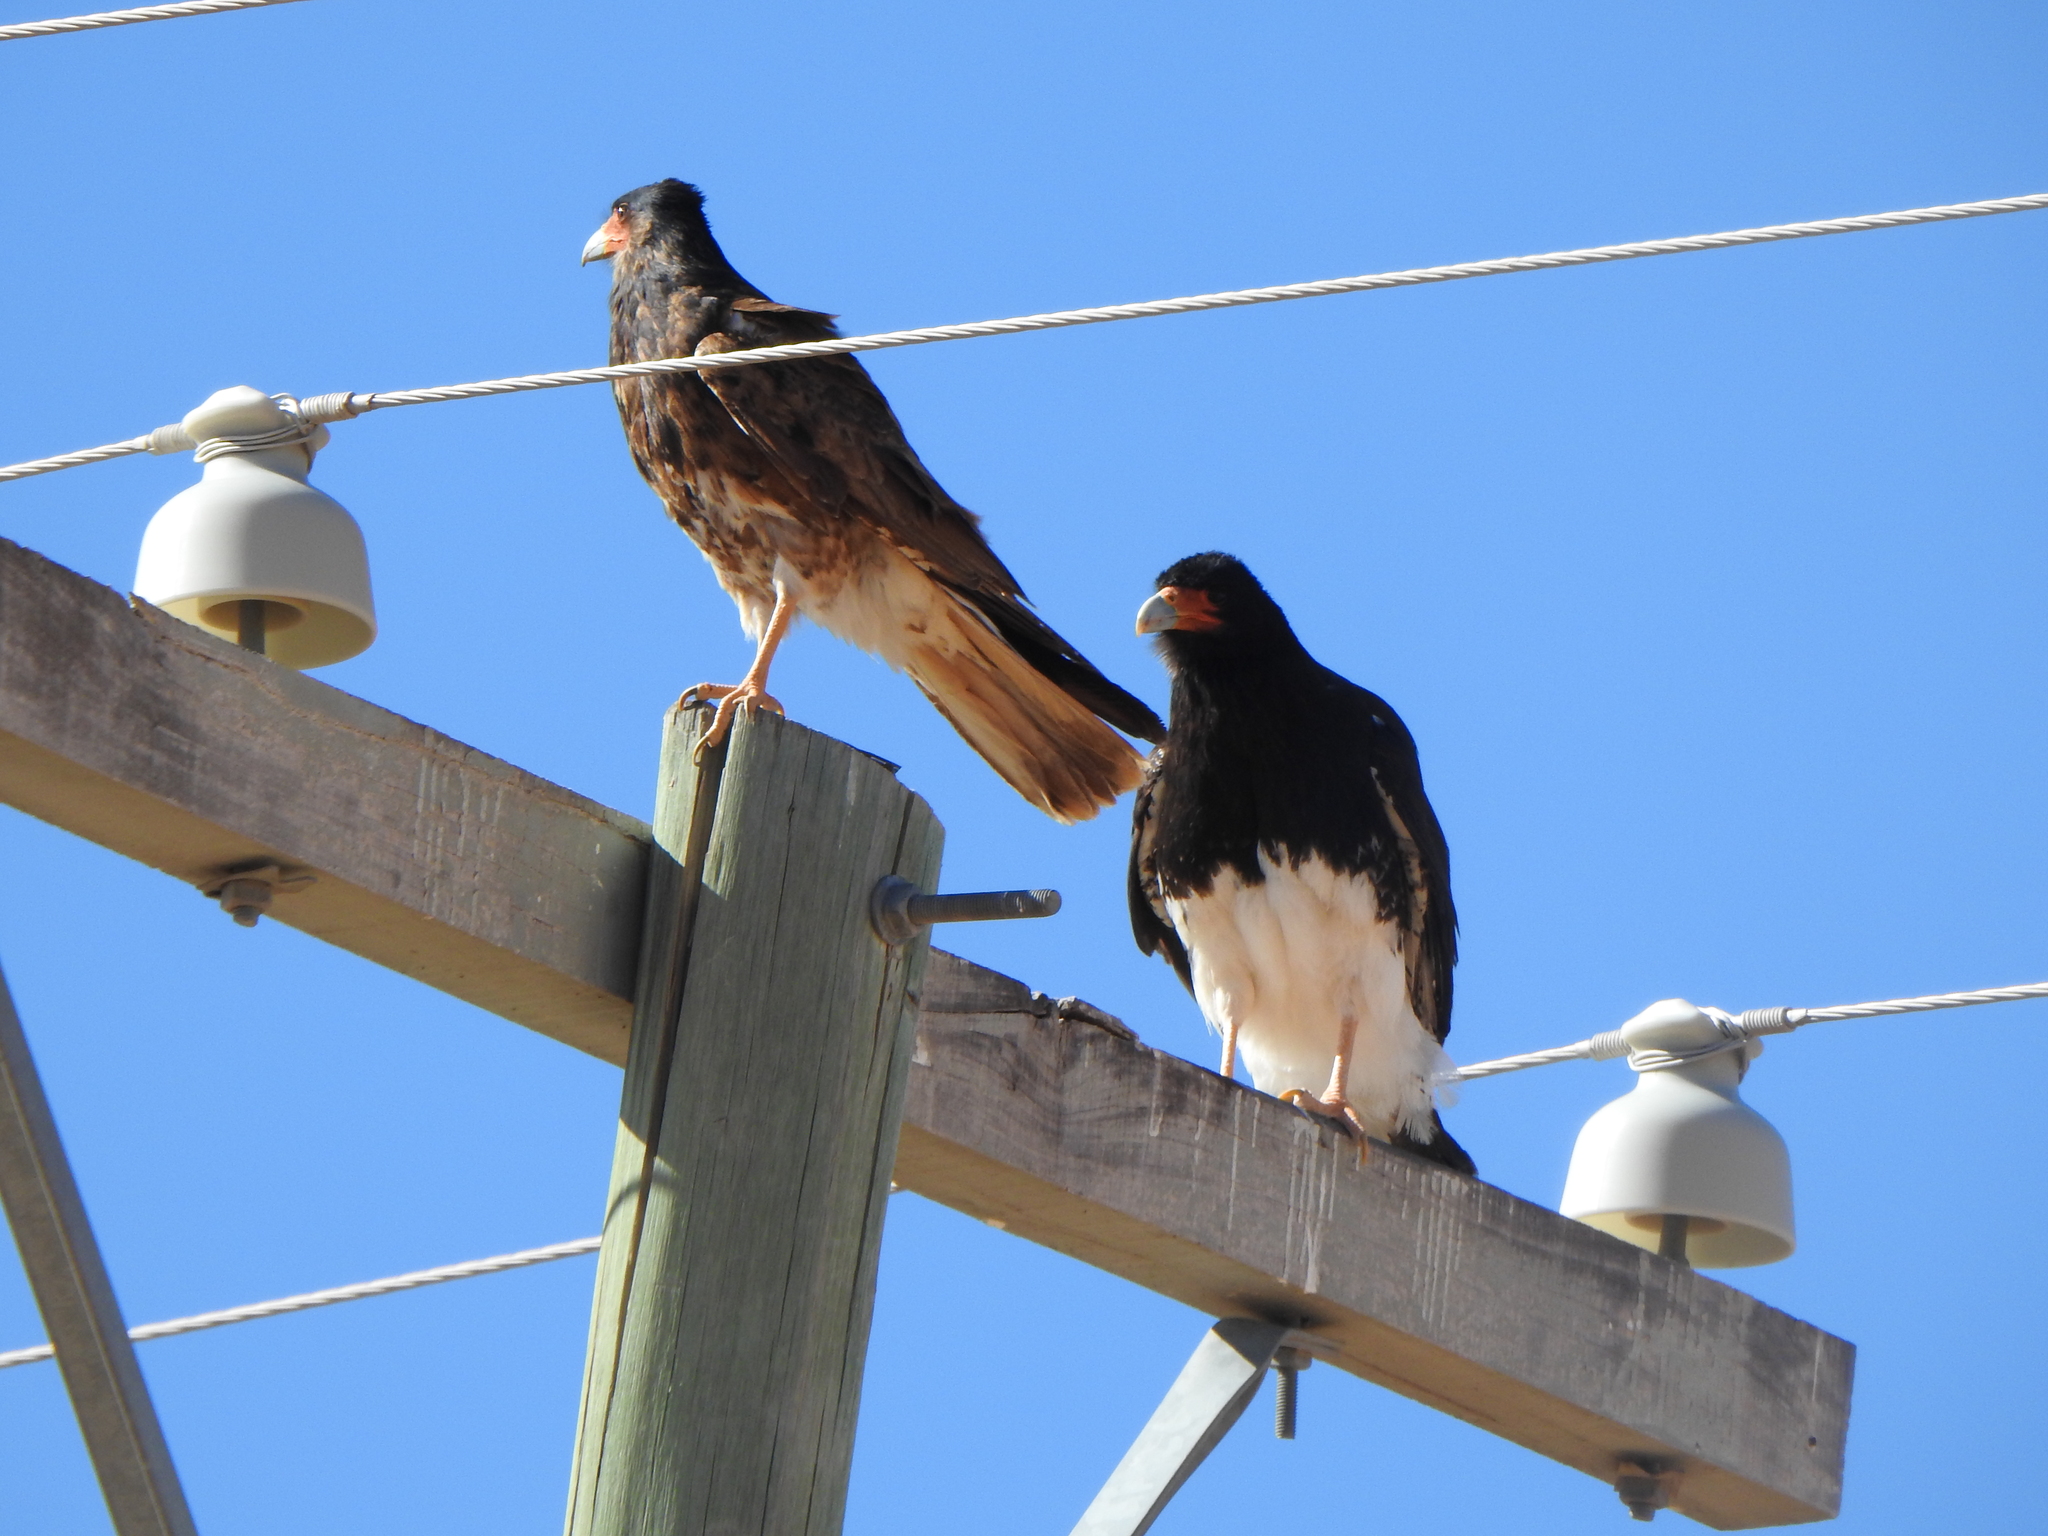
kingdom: Animalia
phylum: Chordata
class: Aves
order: Falconiformes
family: Falconidae
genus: Daptrius
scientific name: Daptrius
